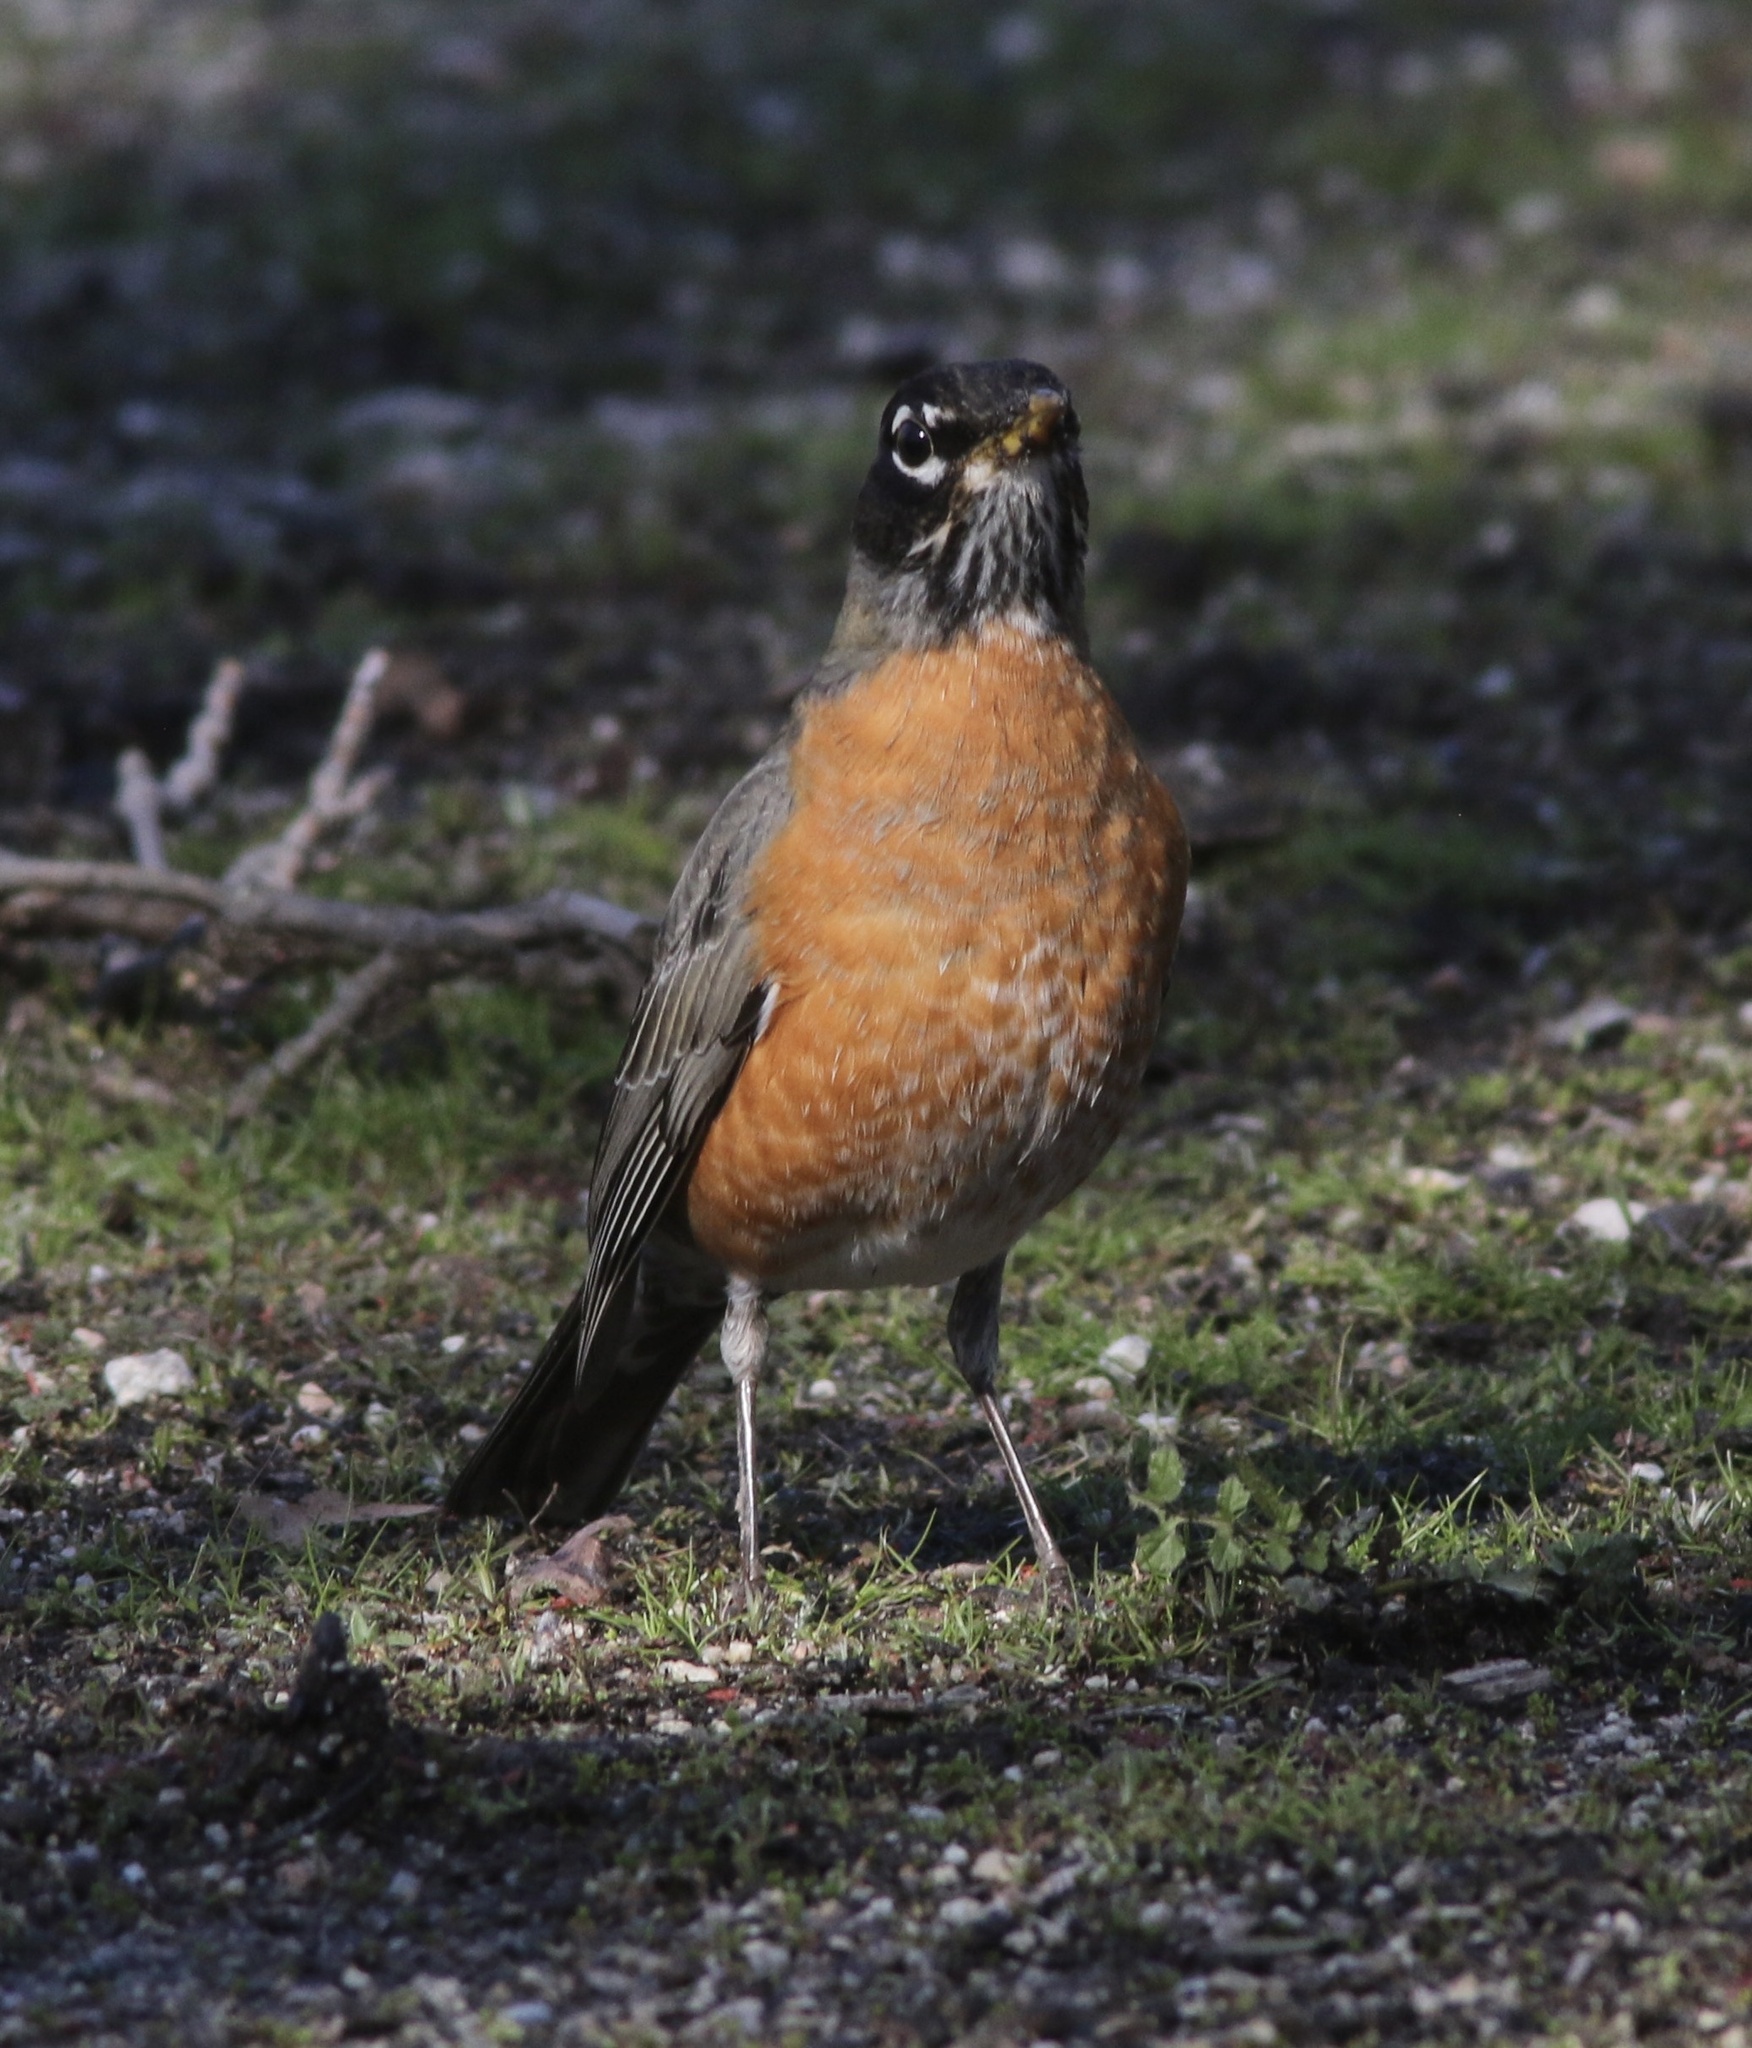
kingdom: Animalia
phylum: Chordata
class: Aves
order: Passeriformes
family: Turdidae
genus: Turdus
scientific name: Turdus migratorius
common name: American robin
